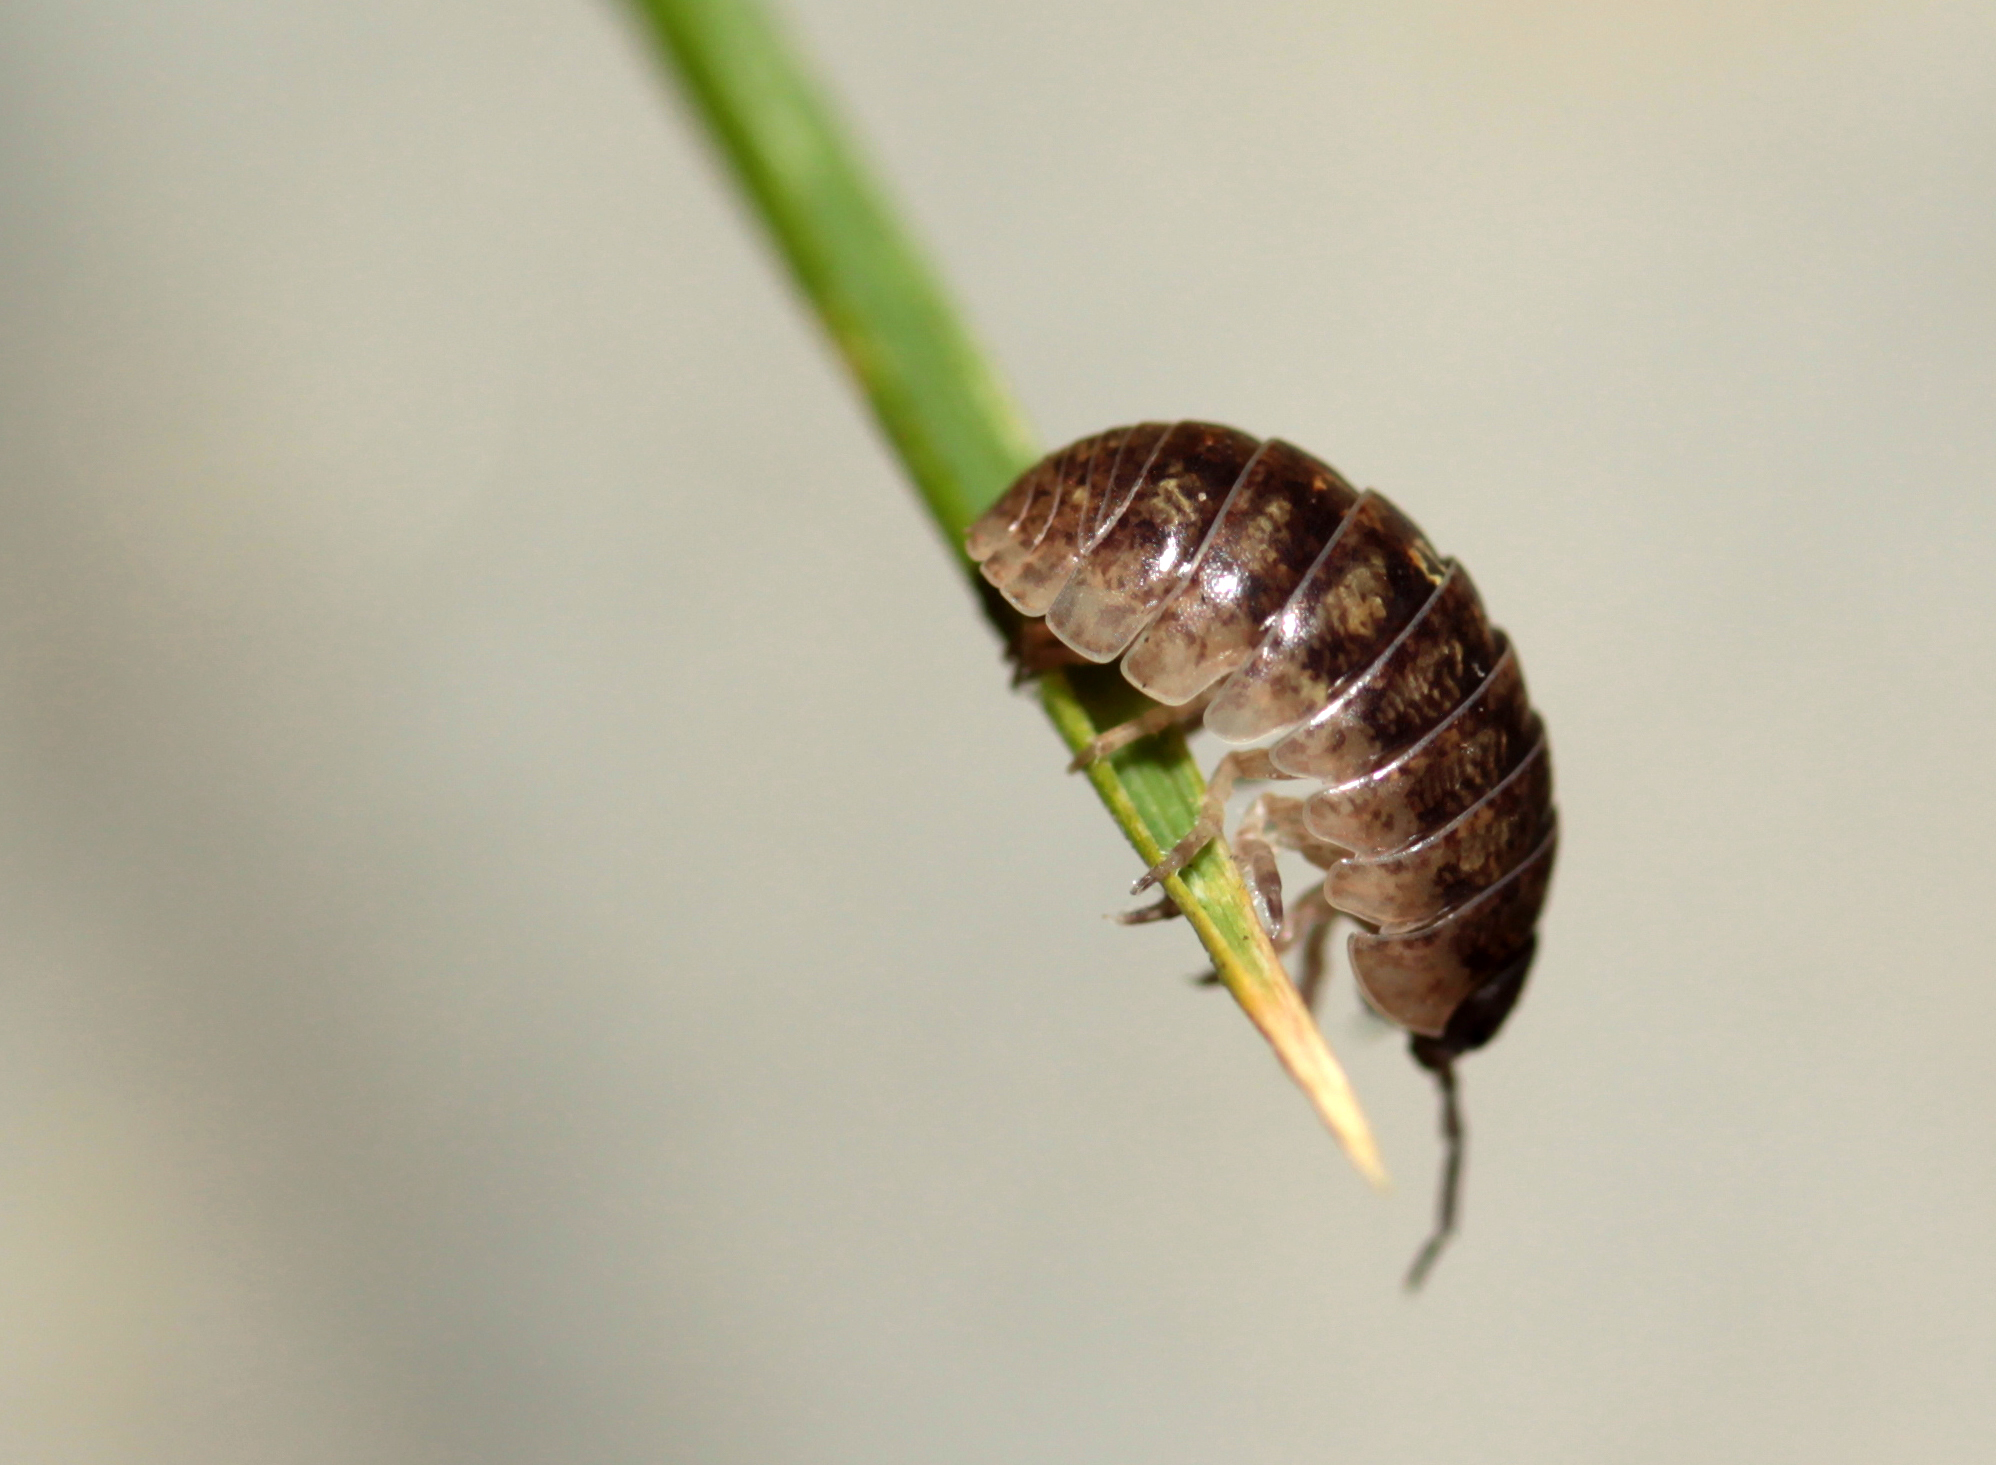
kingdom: Animalia
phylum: Arthropoda
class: Malacostraca
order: Isopoda
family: Armadillidiidae
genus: Armadillidium
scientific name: Armadillidium vulgare
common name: Common pill woodlouse
